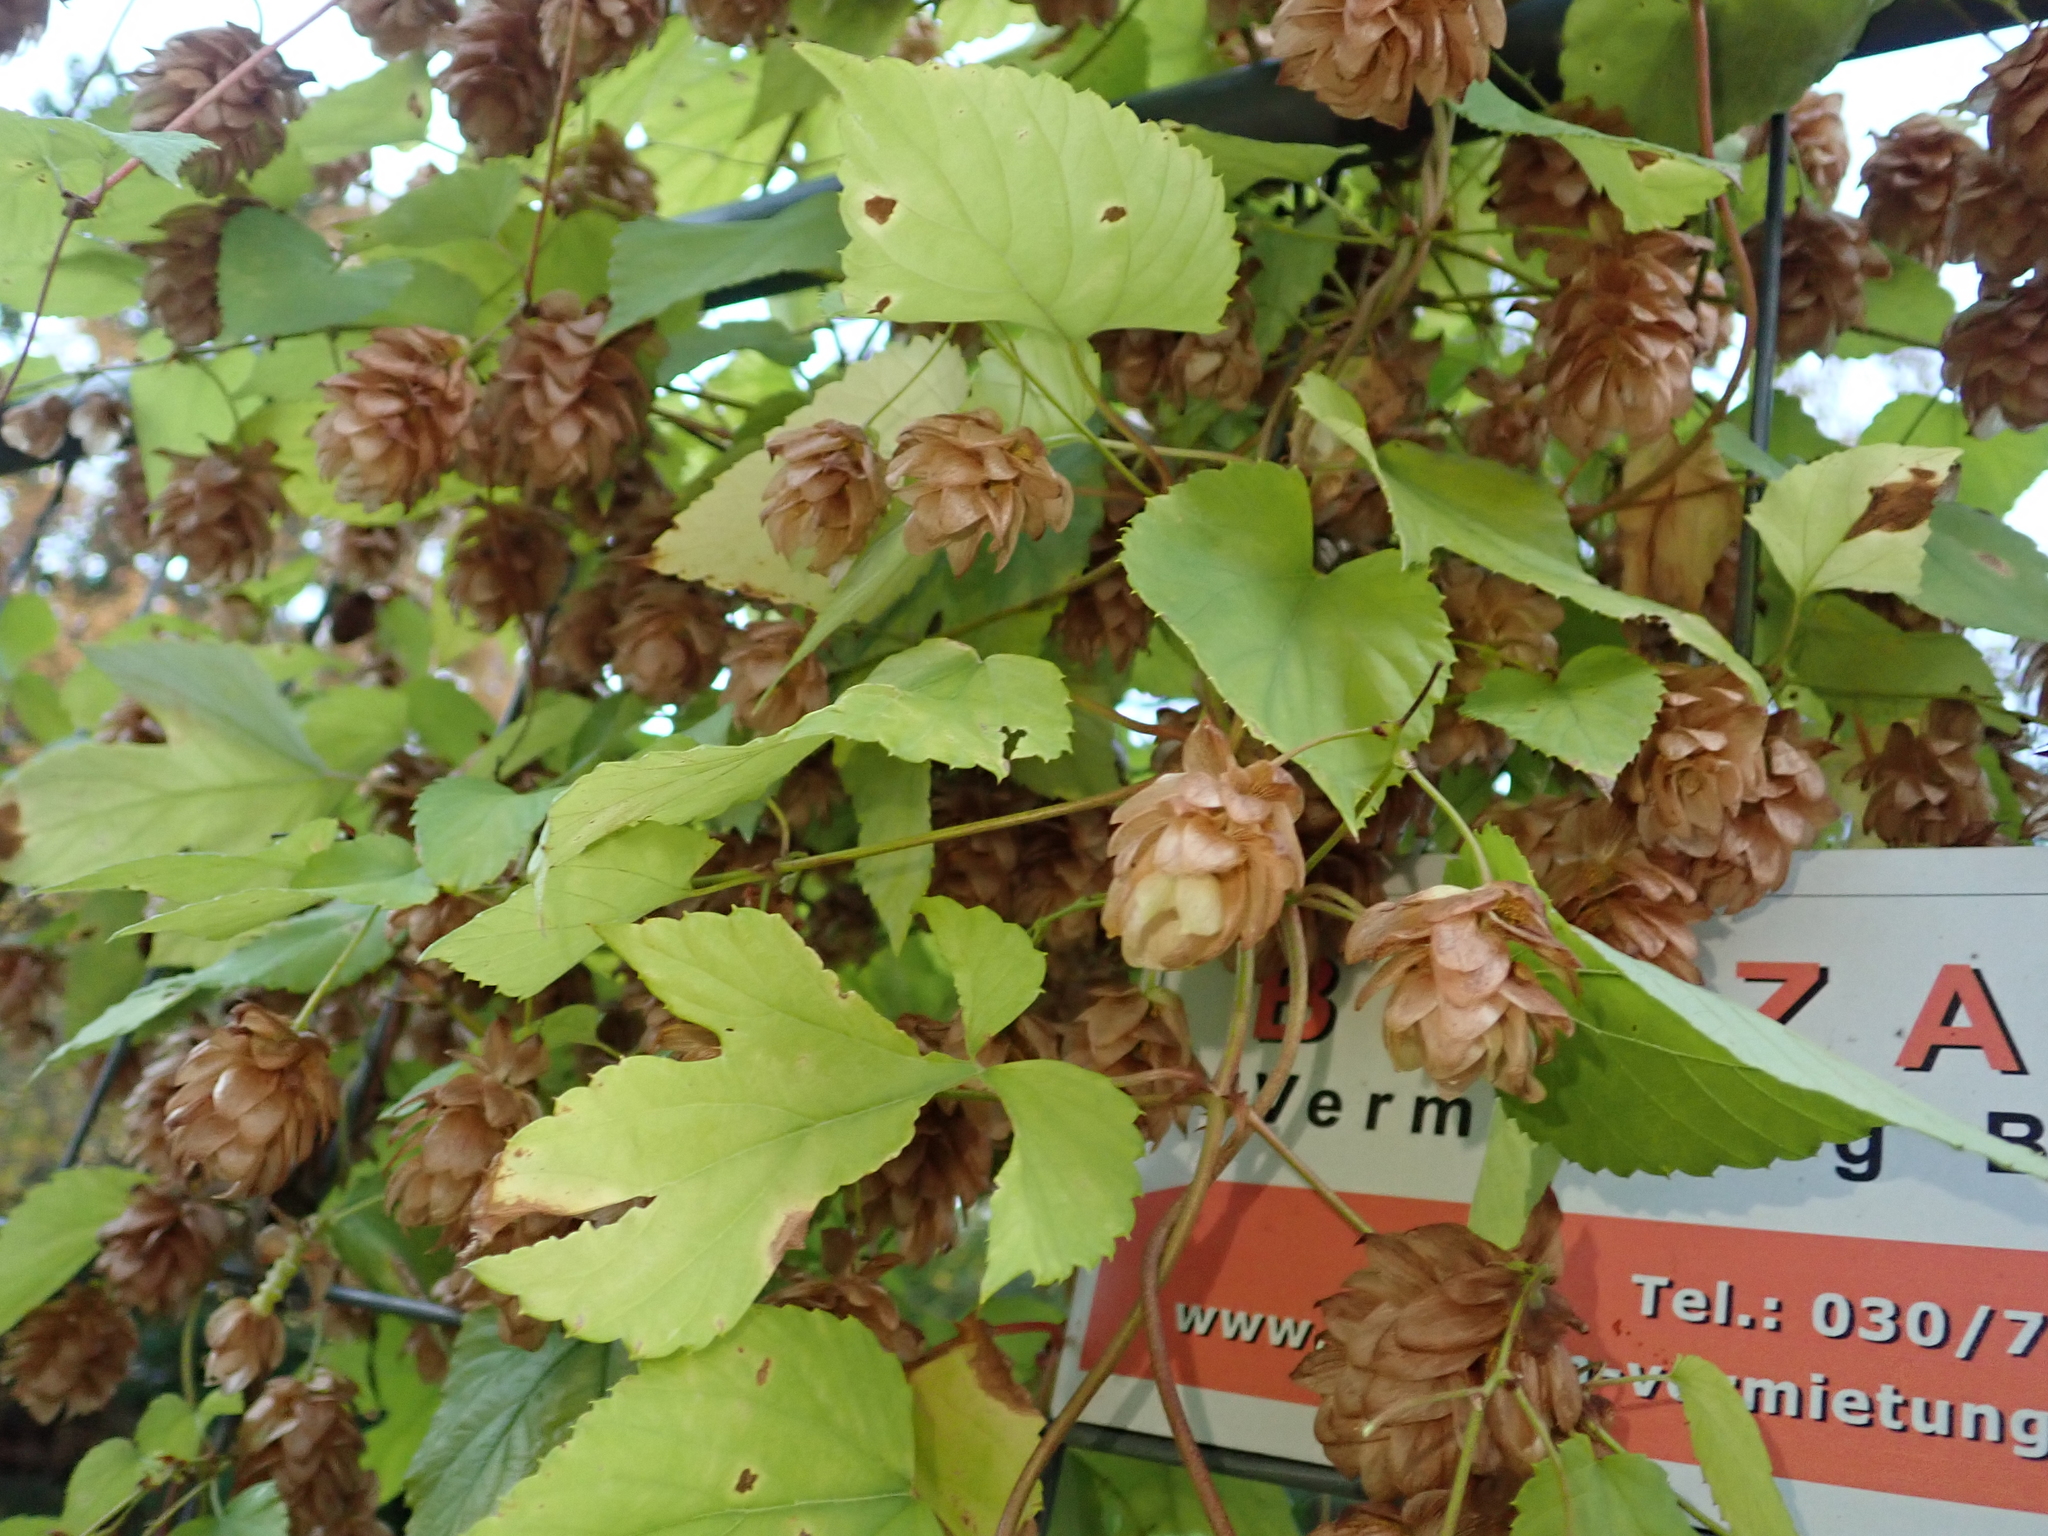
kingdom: Plantae
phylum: Tracheophyta
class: Magnoliopsida
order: Rosales
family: Cannabaceae
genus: Humulus
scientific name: Humulus lupulus
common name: Hop
